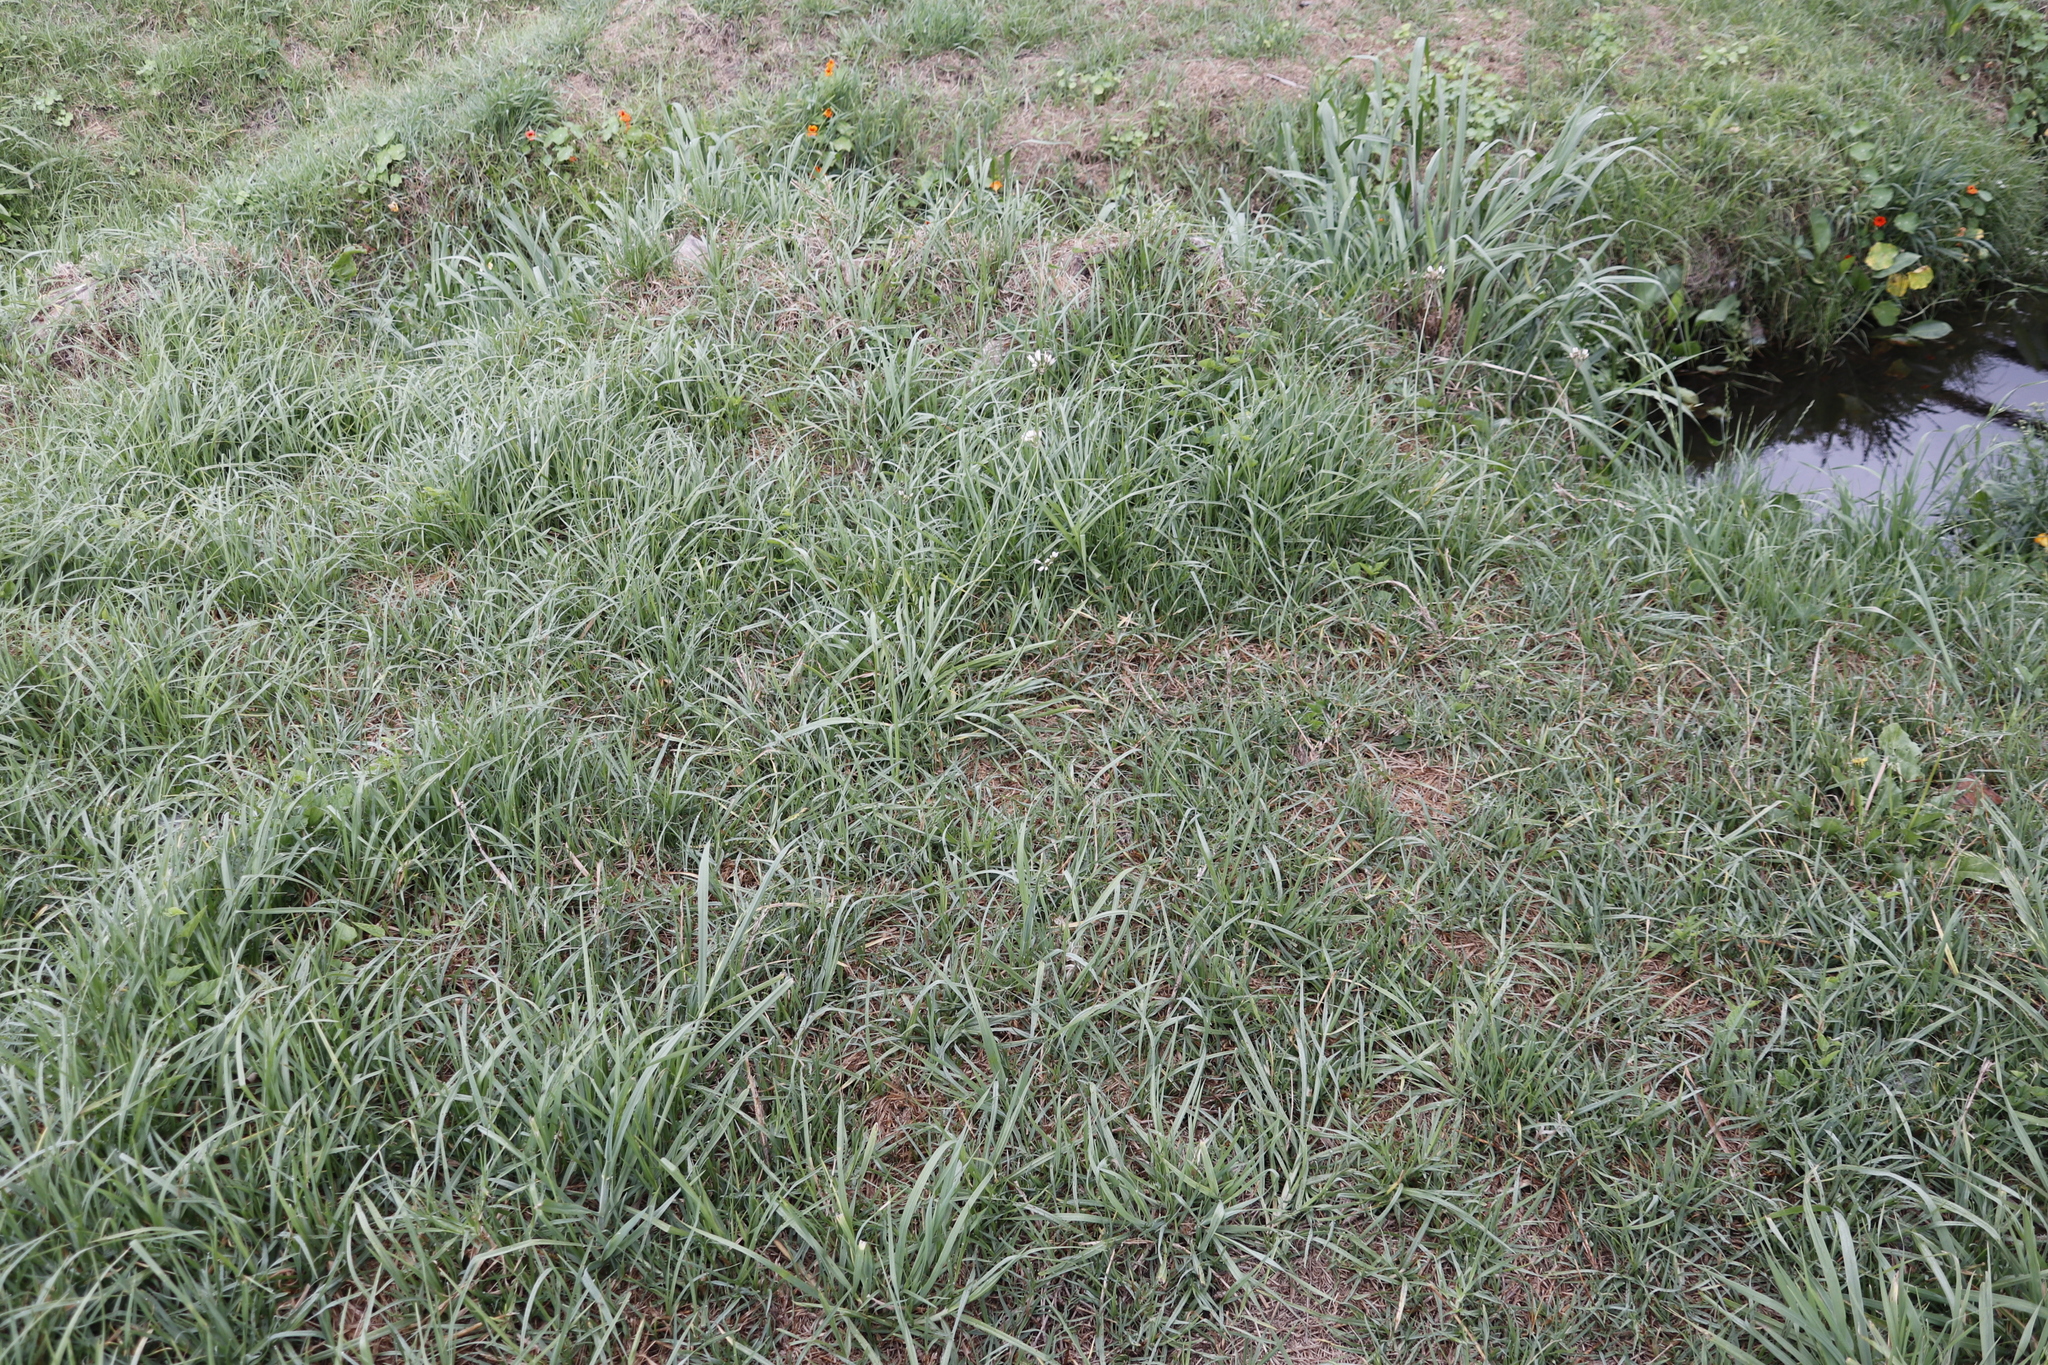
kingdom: Plantae
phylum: Tracheophyta
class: Liliopsida
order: Asparagales
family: Amaryllidaceae
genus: Nothoscordum
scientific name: Nothoscordum gracile
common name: Slender false garlic
